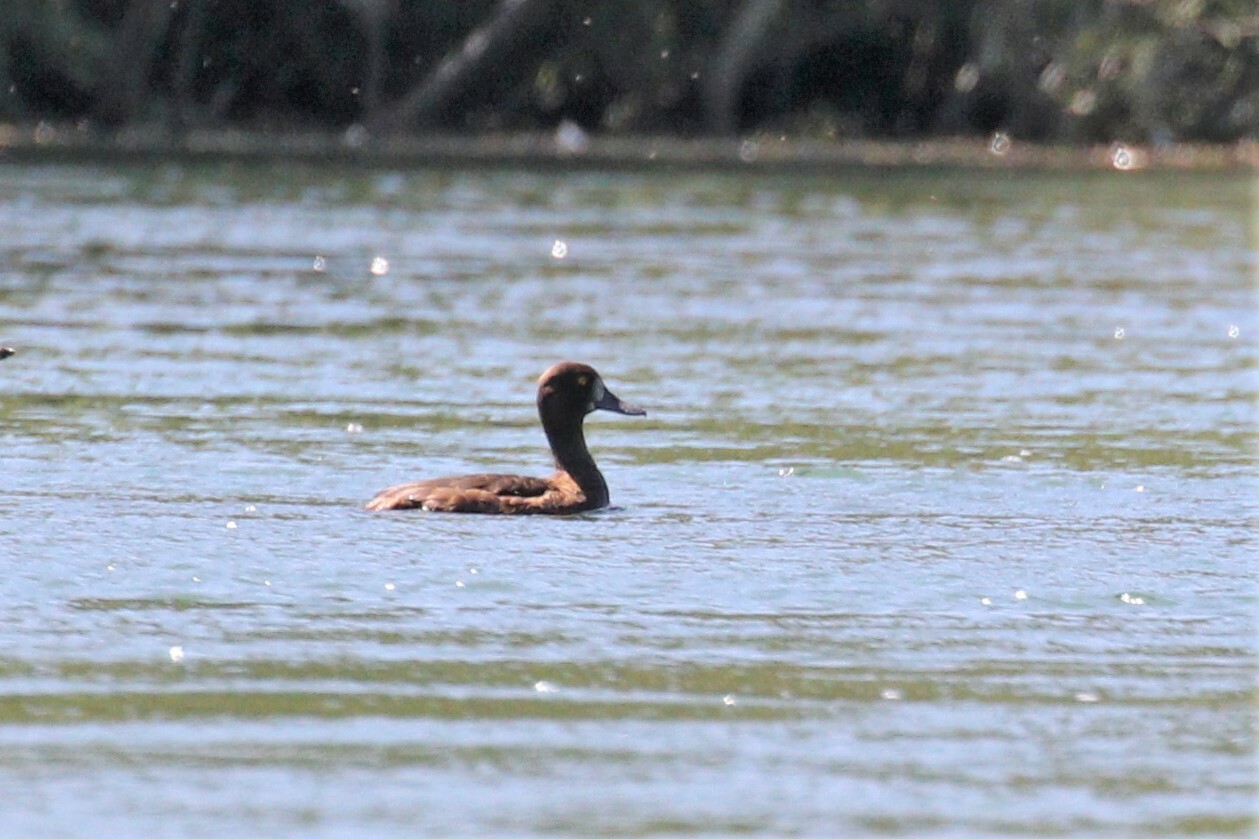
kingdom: Animalia
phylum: Chordata
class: Aves
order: Anseriformes
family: Anatidae
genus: Aythya
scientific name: Aythya fuligula
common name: Tufted duck
